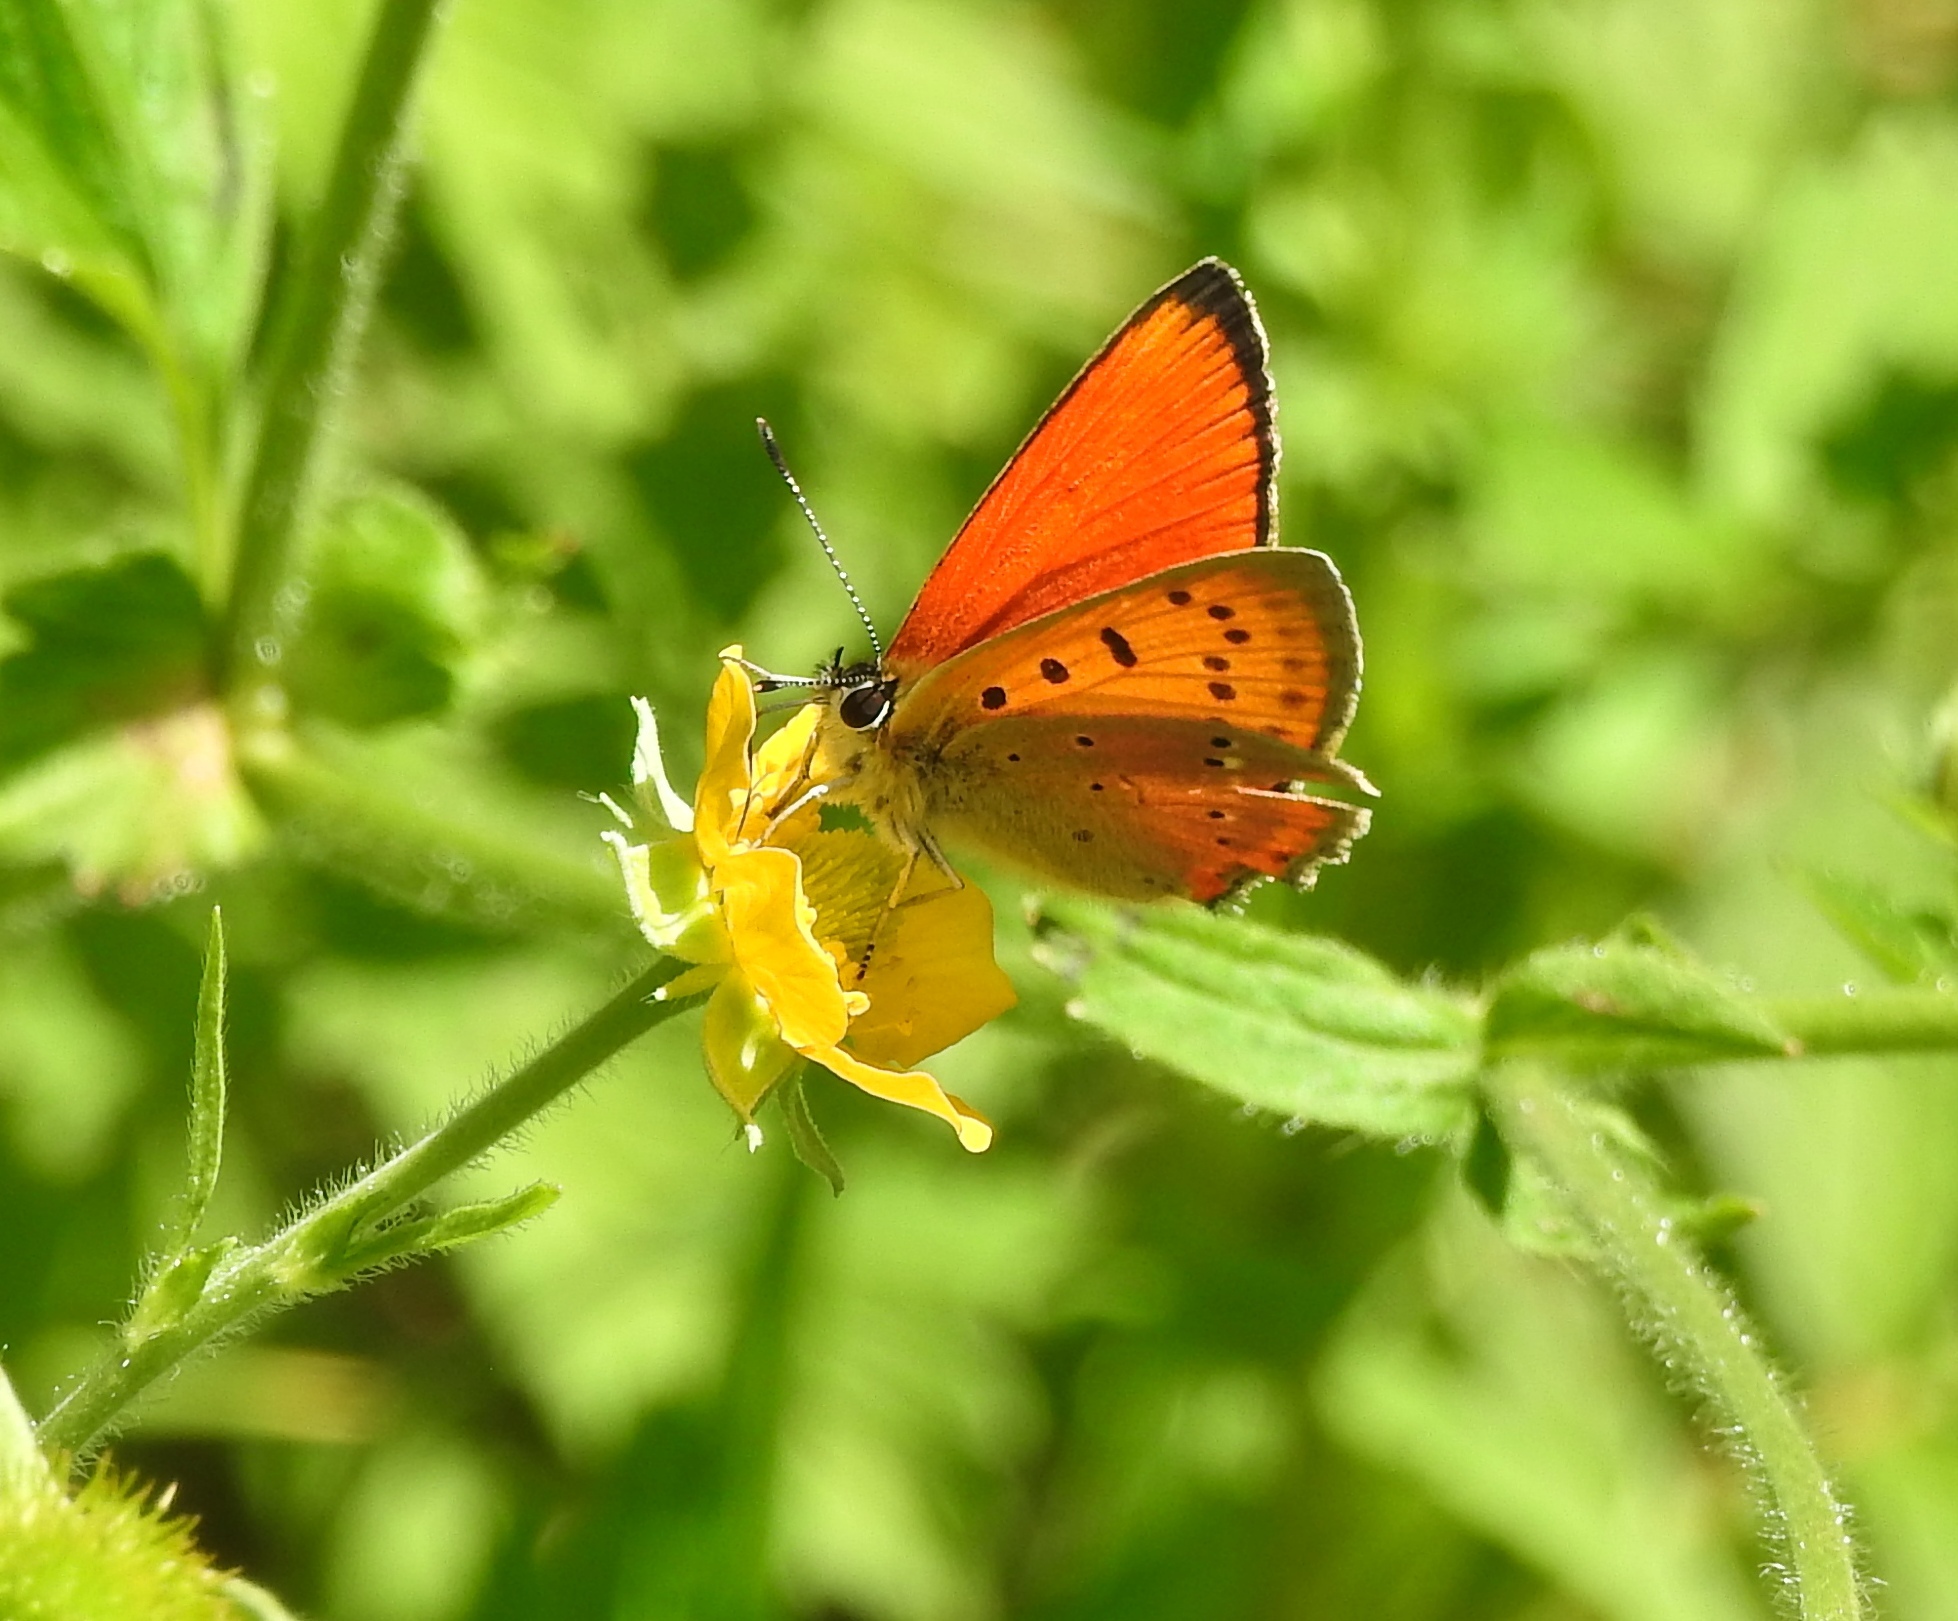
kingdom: Animalia
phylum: Arthropoda
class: Insecta
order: Lepidoptera
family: Lycaenidae
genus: Lycaena
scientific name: Lycaena virgaureae
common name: Scarce copper
